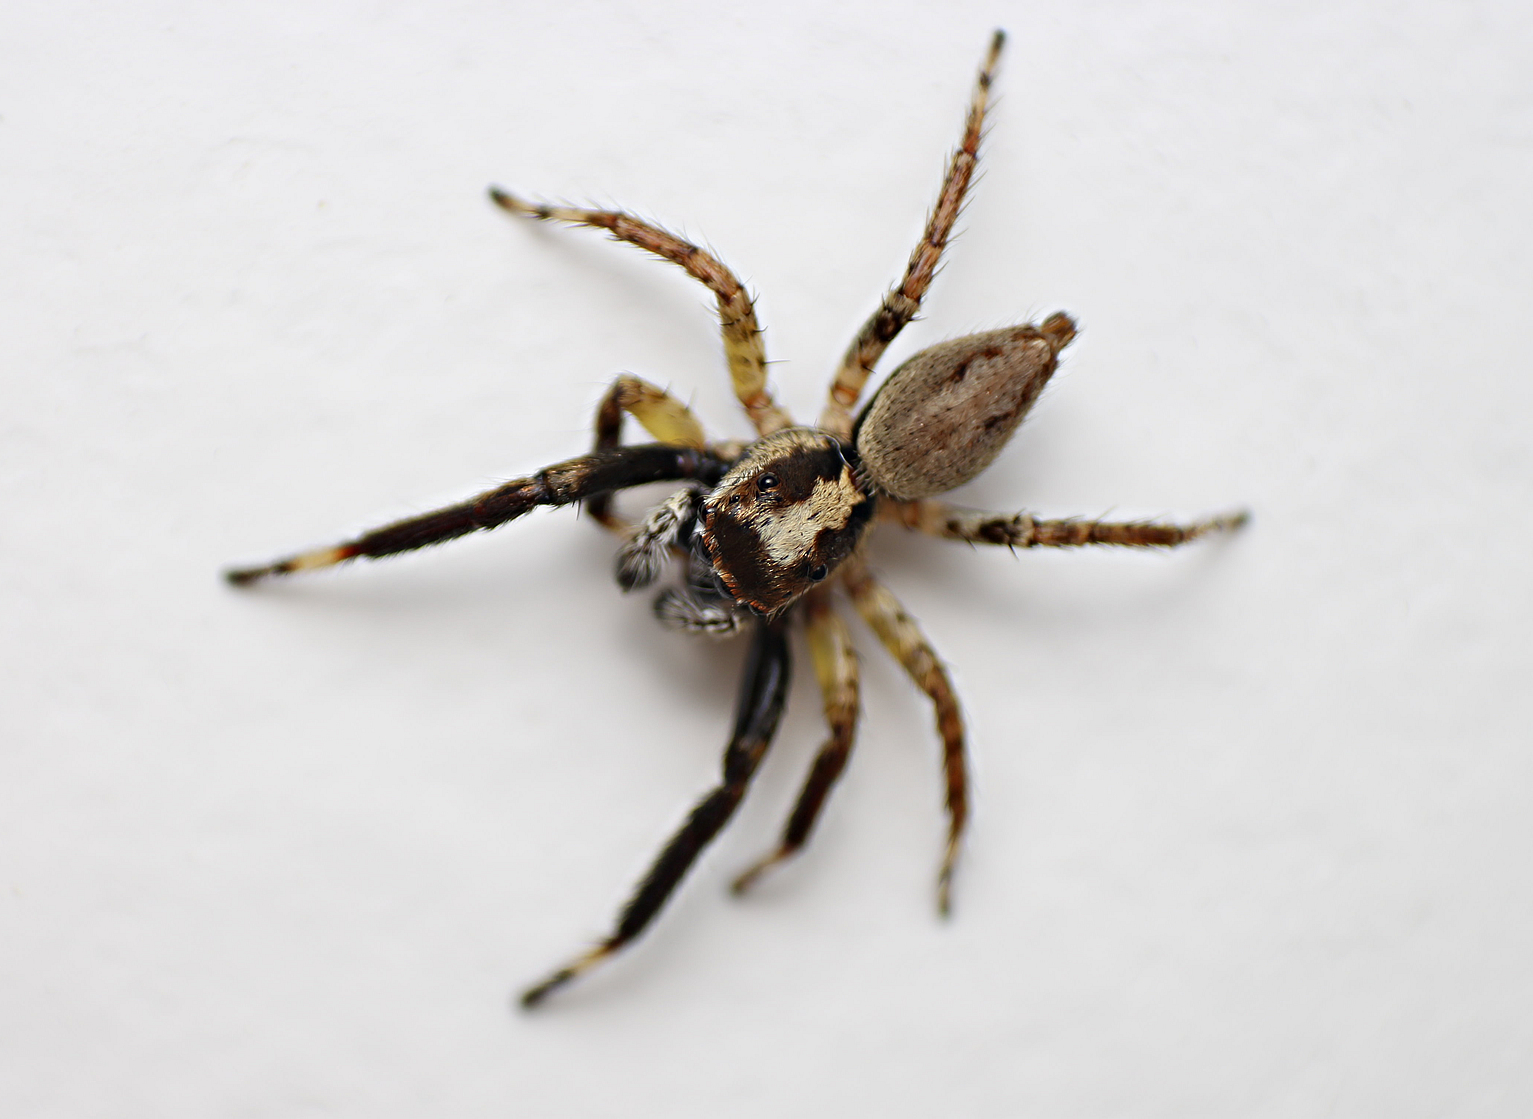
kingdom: Animalia
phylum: Arthropoda
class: Arachnida
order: Araneae
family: Salticidae
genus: Asaphobelis
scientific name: Asaphobelis physonychus
